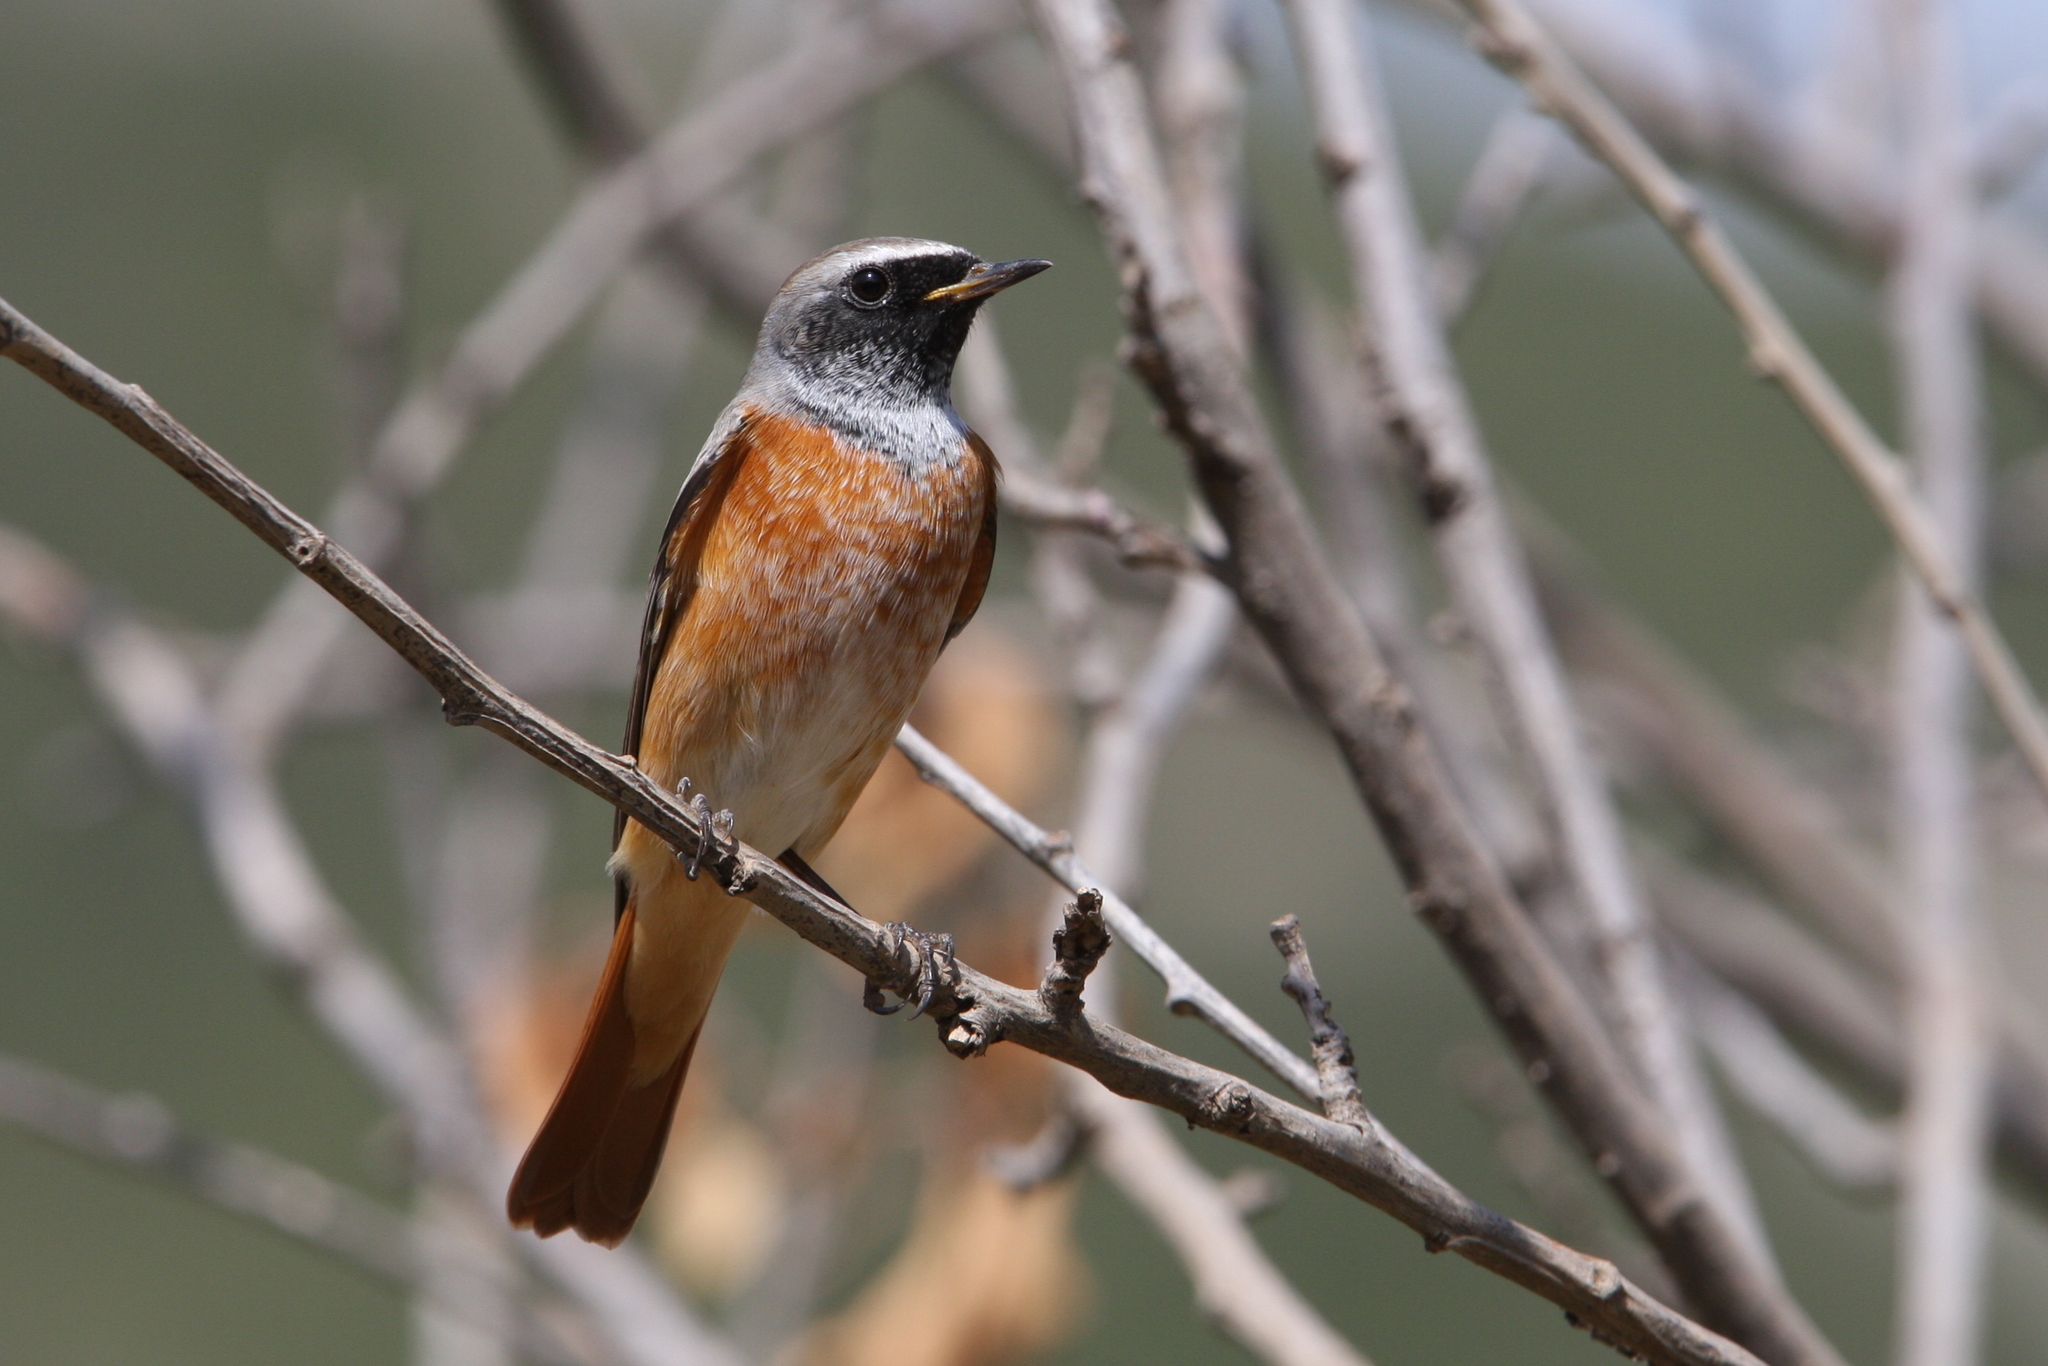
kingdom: Animalia
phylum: Chordata
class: Aves
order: Passeriformes
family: Muscicapidae
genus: Phoenicurus
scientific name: Phoenicurus phoenicurus
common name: Common redstart
